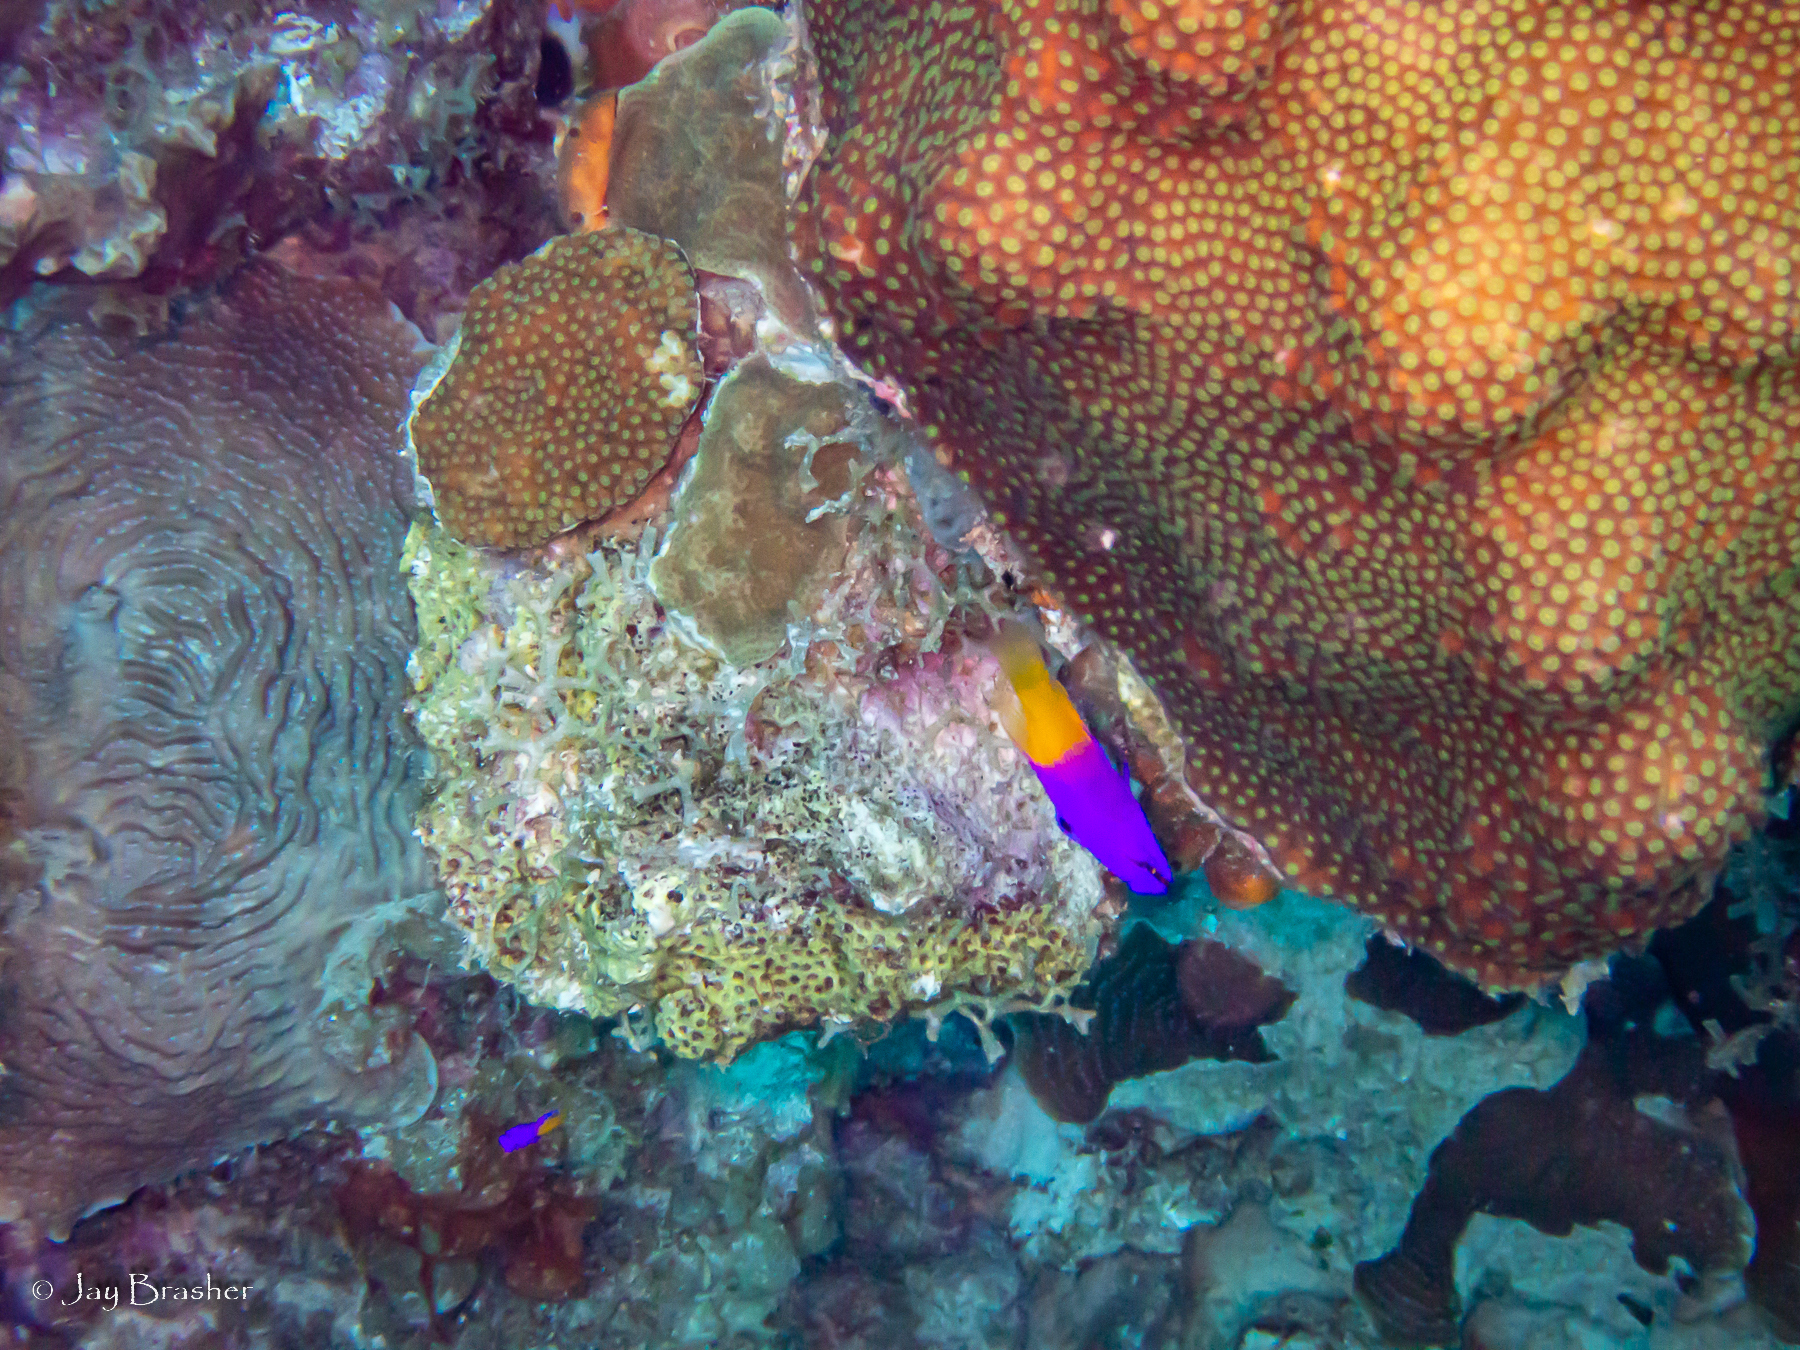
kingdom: Animalia
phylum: Cnidaria
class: Anthozoa
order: Scleractinia
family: Agariciidae
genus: Agaricia
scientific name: Agaricia lamarcki
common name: Lamarck's sheet coral
